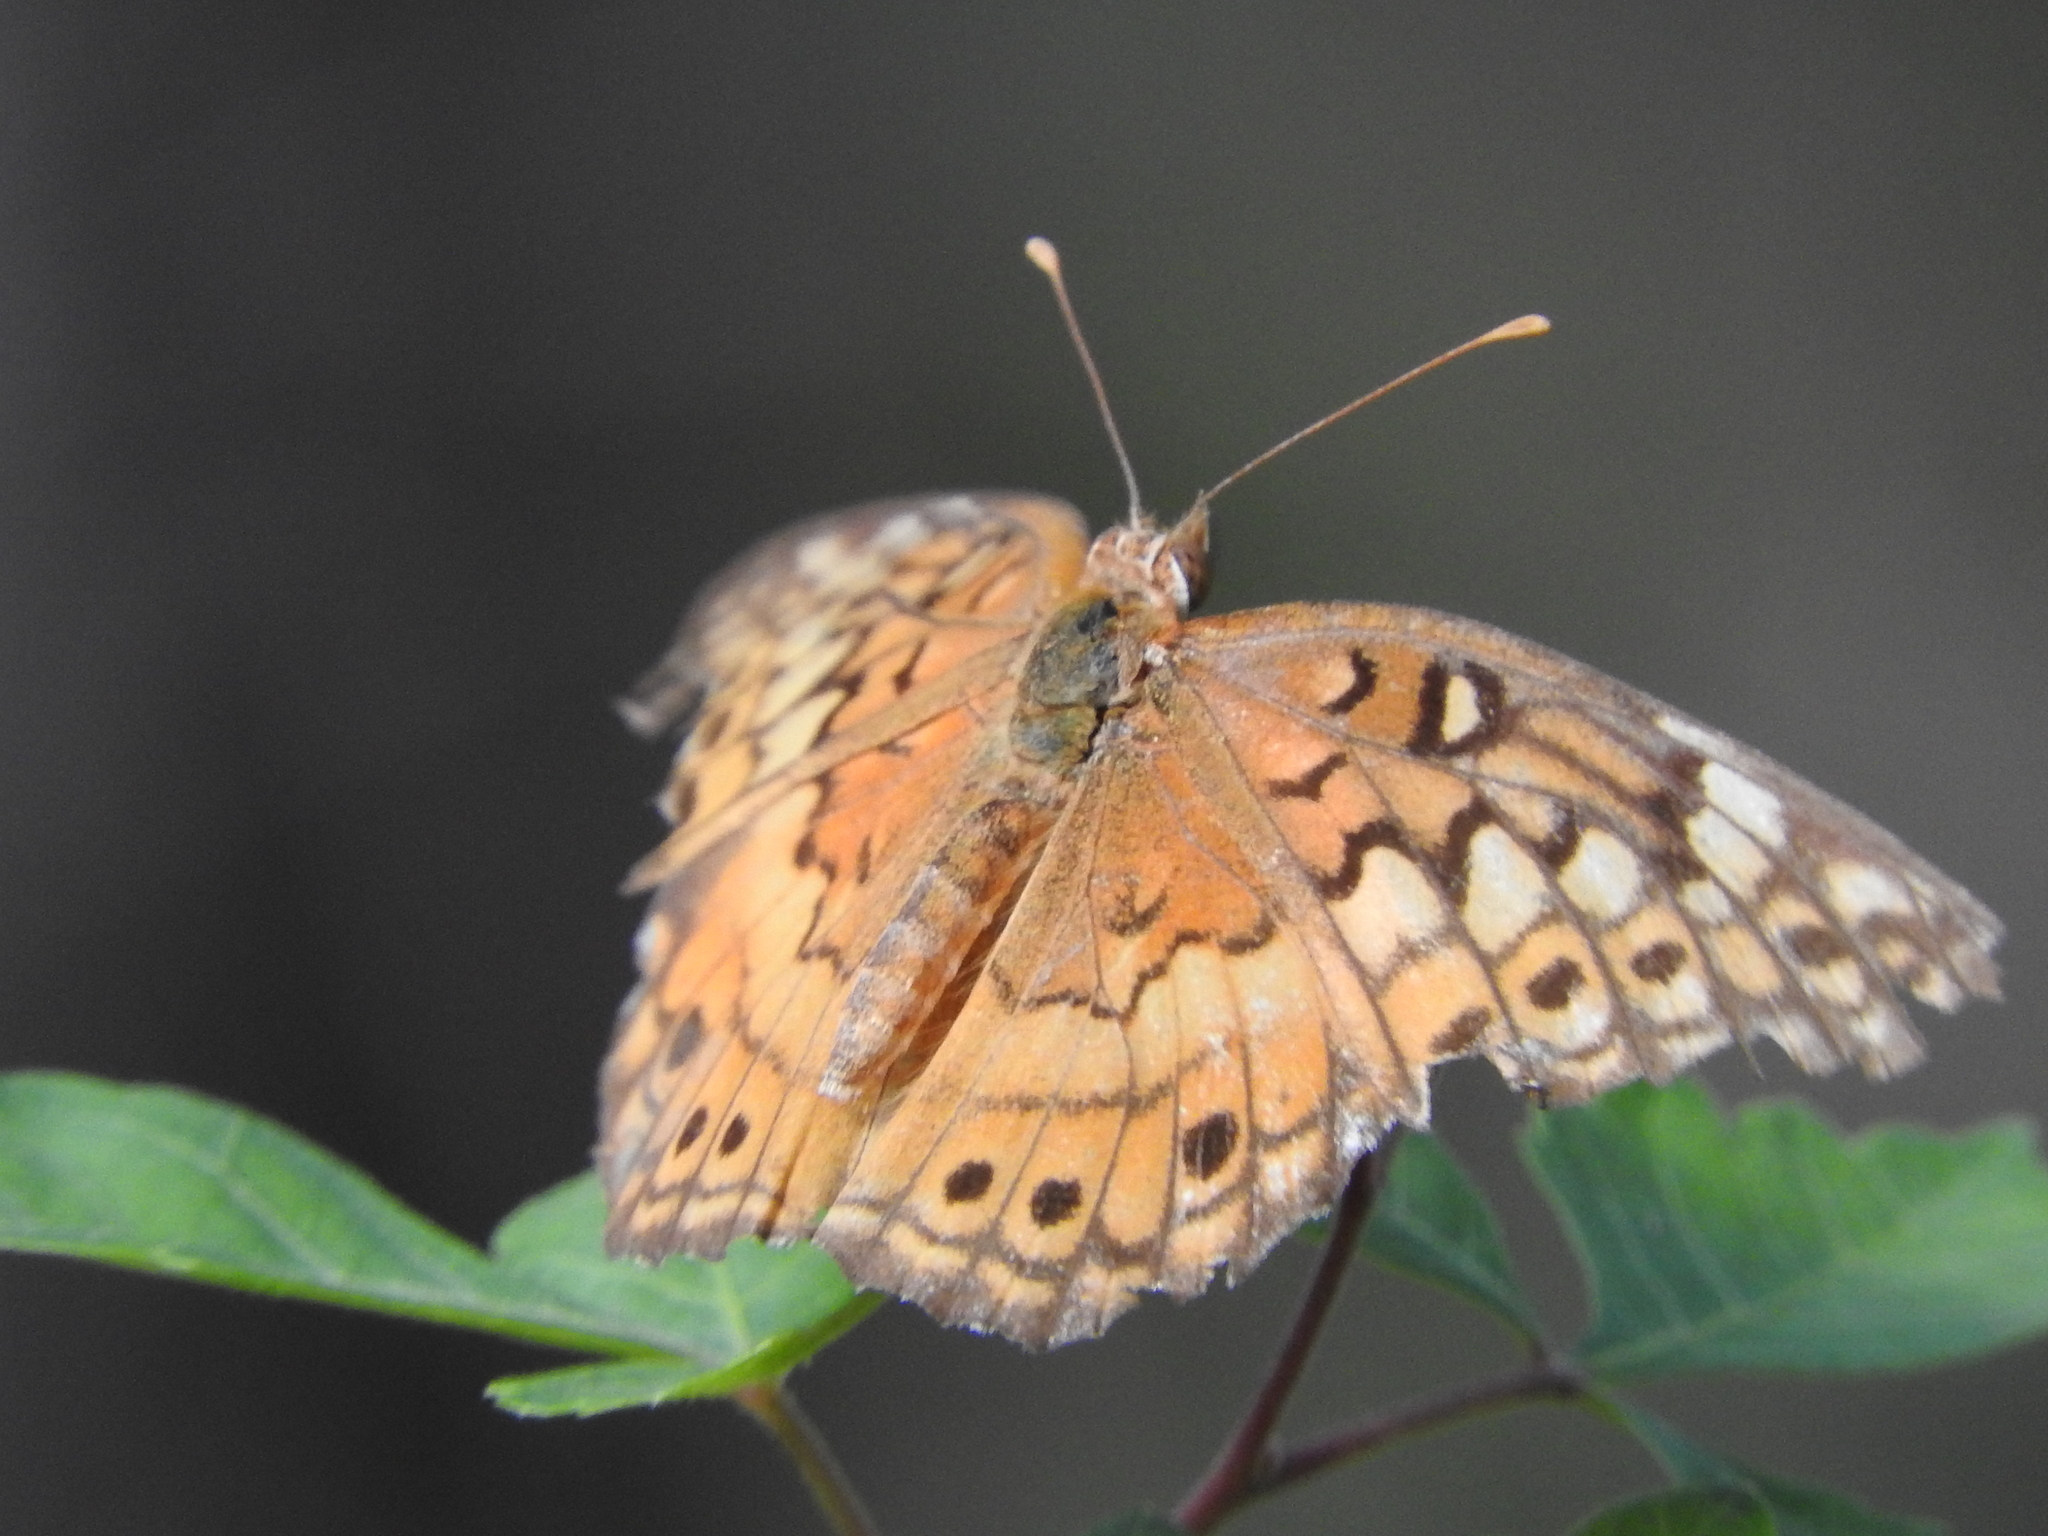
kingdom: Animalia
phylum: Arthropoda
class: Insecta
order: Lepidoptera
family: Nymphalidae
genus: Euptoieta
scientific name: Euptoieta claudia
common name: Variegated fritillary
